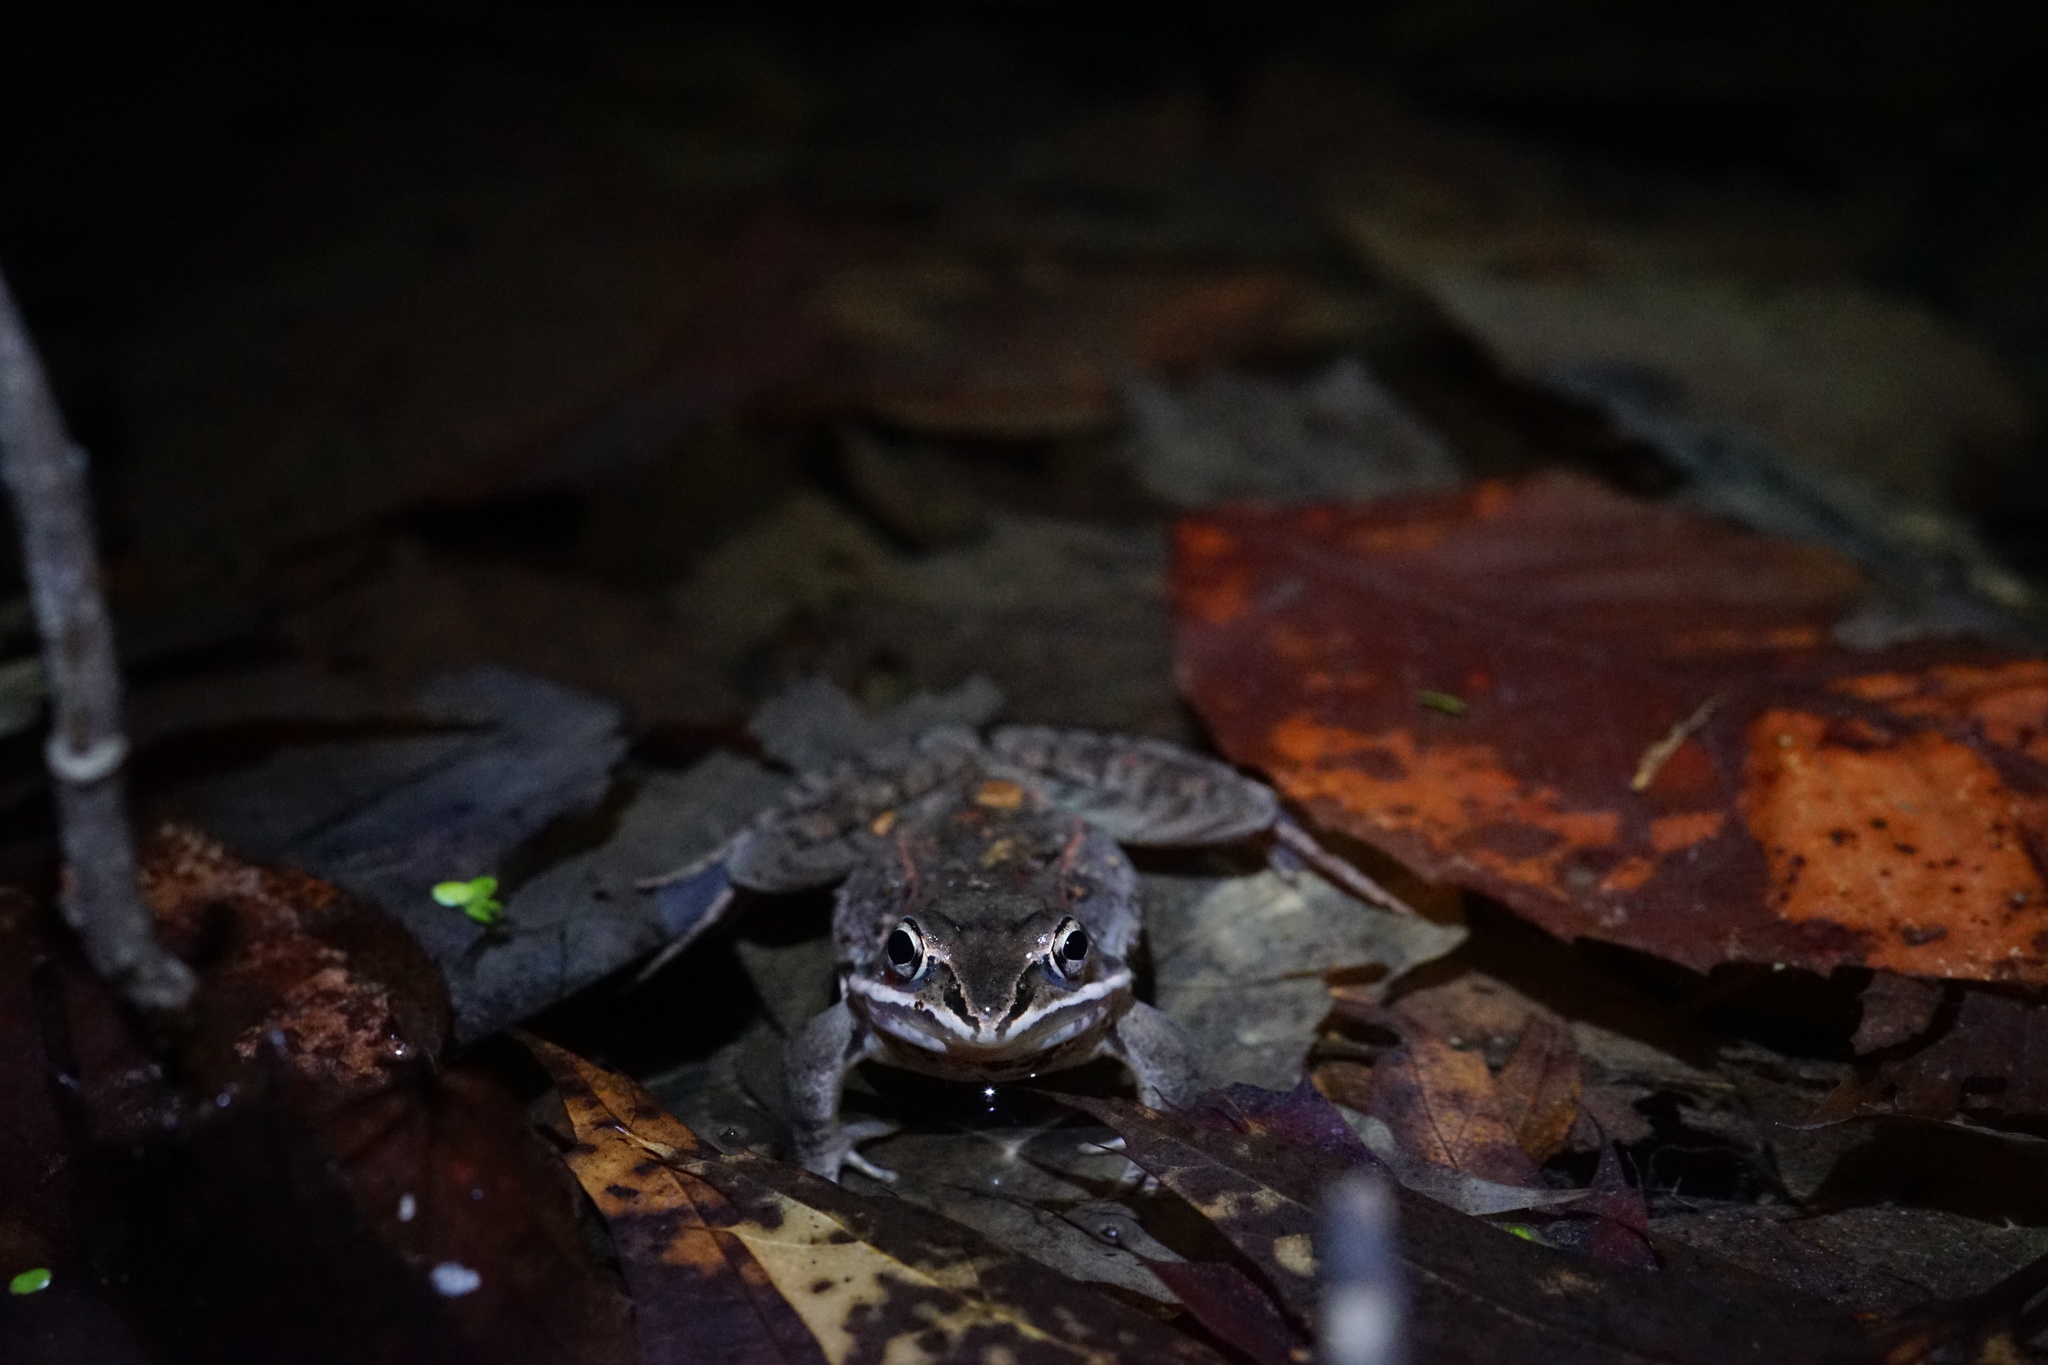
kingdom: Animalia
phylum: Chordata
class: Amphibia
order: Anura
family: Ranidae
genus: Lithobates
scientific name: Lithobates sylvaticus
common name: Wood frog
